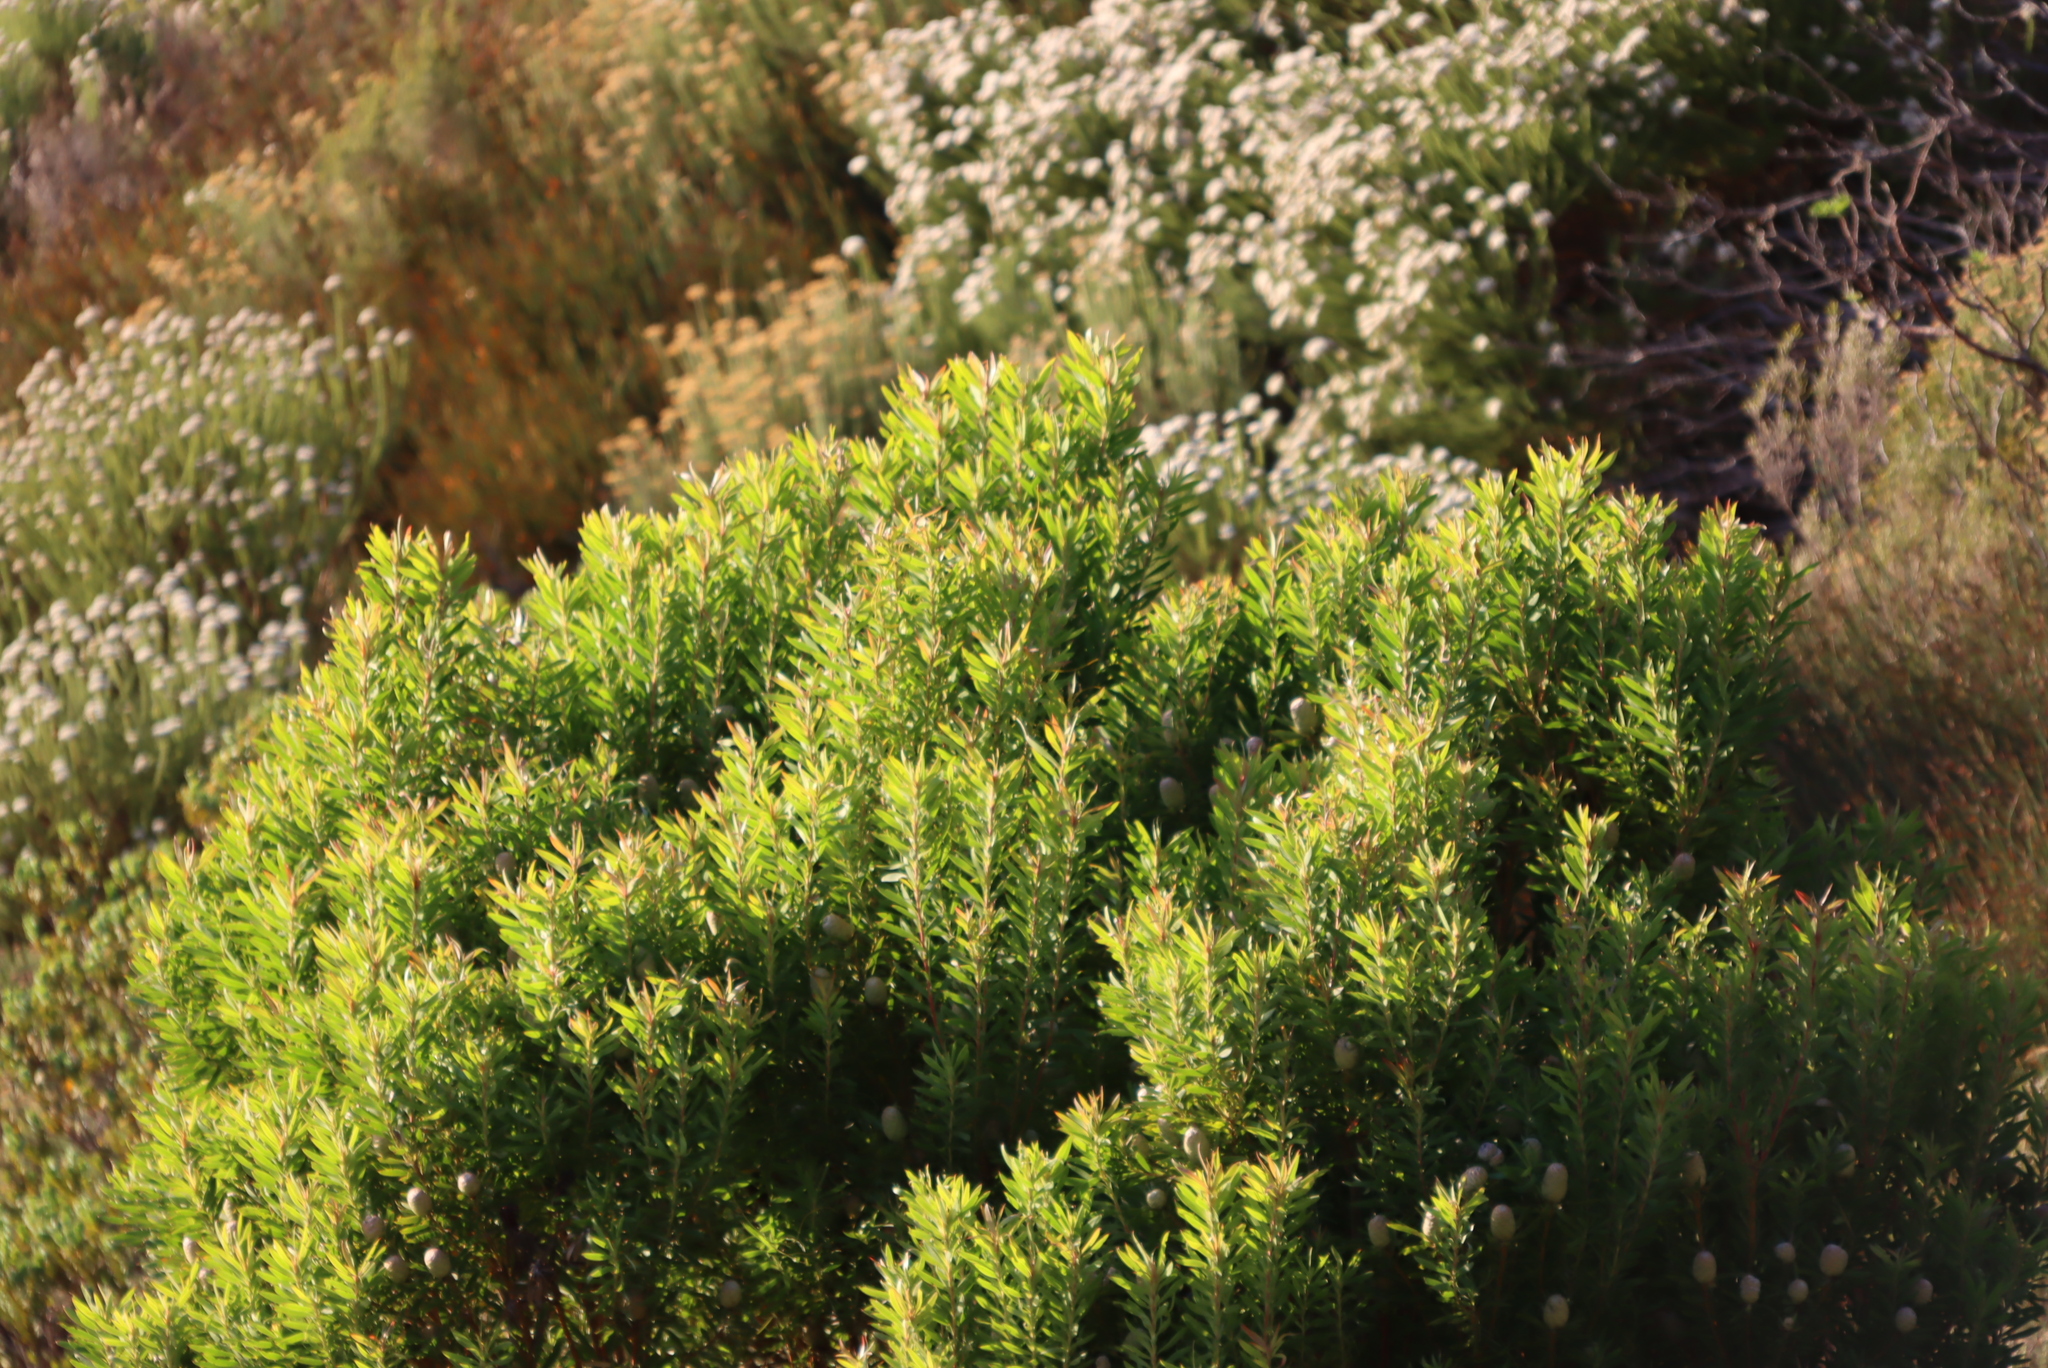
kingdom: Plantae
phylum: Tracheophyta
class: Magnoliopsida
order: Proteales
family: Proteaceae
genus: Leucadendron
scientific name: Leucadendron xanthoconus
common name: Sickle-leaf conebush
